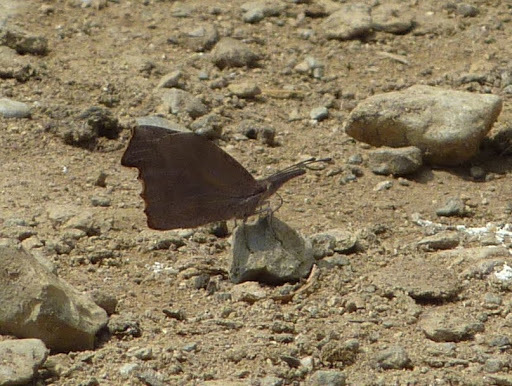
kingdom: Animalia
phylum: Arthropoda
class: Insecta
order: Lepidoptera
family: Nymphalidae
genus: Libytheana
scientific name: Libytheana carinenta
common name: American snout
